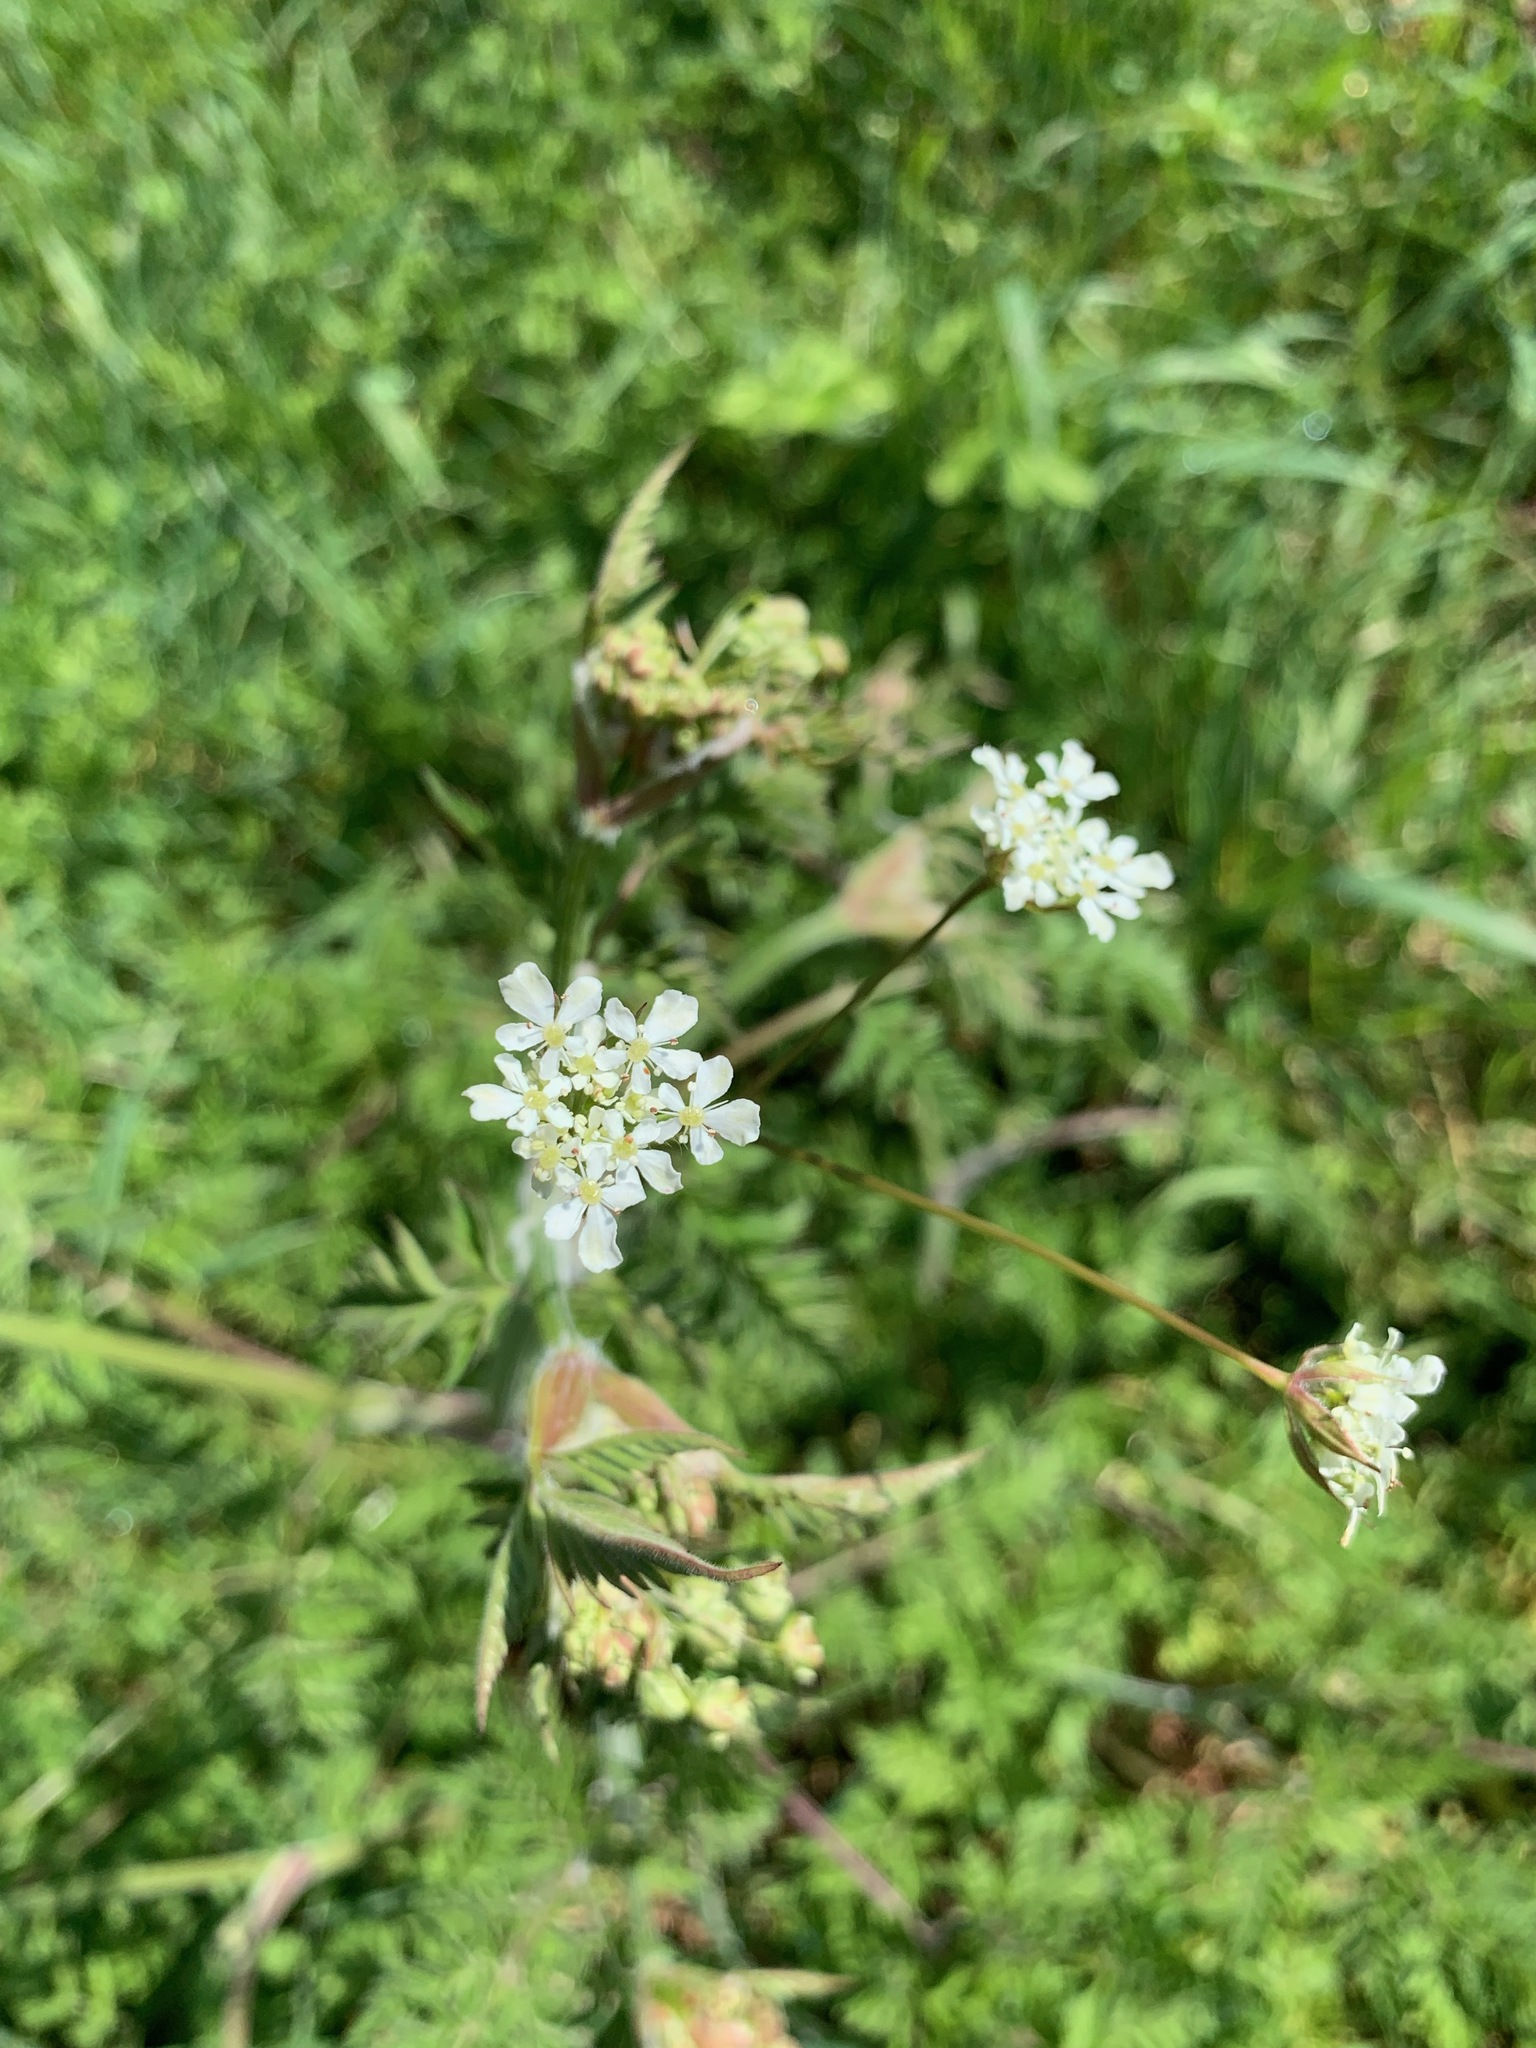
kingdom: Plantae
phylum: Tracheophyta
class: Magnoliopsida
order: Apiales
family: Apiaceae
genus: Anthriscus
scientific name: Anthriscus sylvestris
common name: Cow parsley
